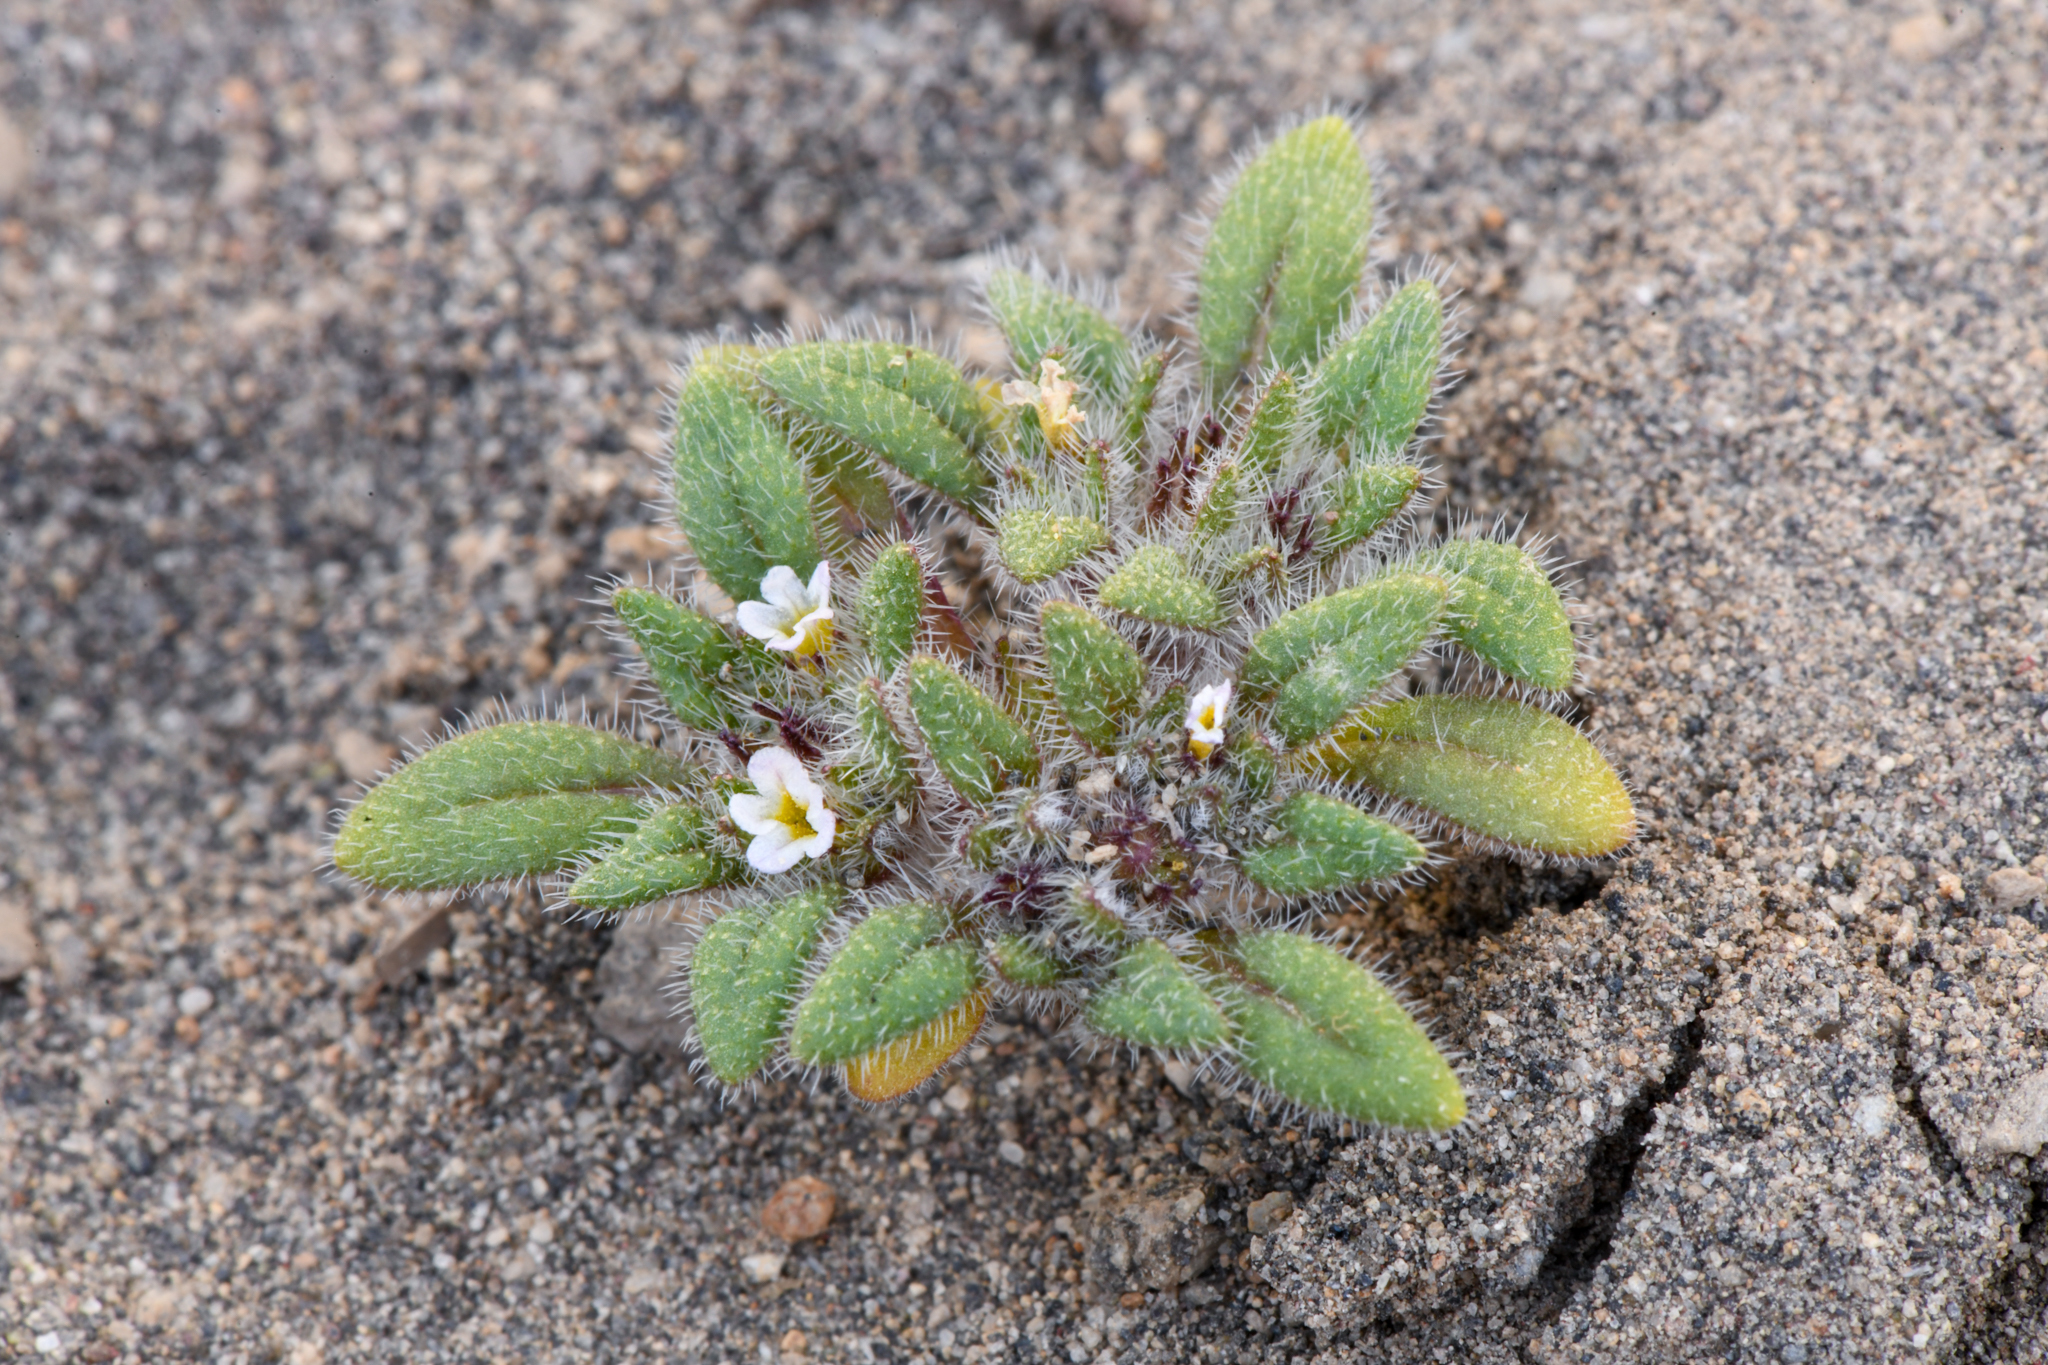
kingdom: Plantae
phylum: Tracheophyta
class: Magnoliopsida
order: Boraginales
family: Namaceae
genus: Nama
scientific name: Nama densa
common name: Leafy nama
